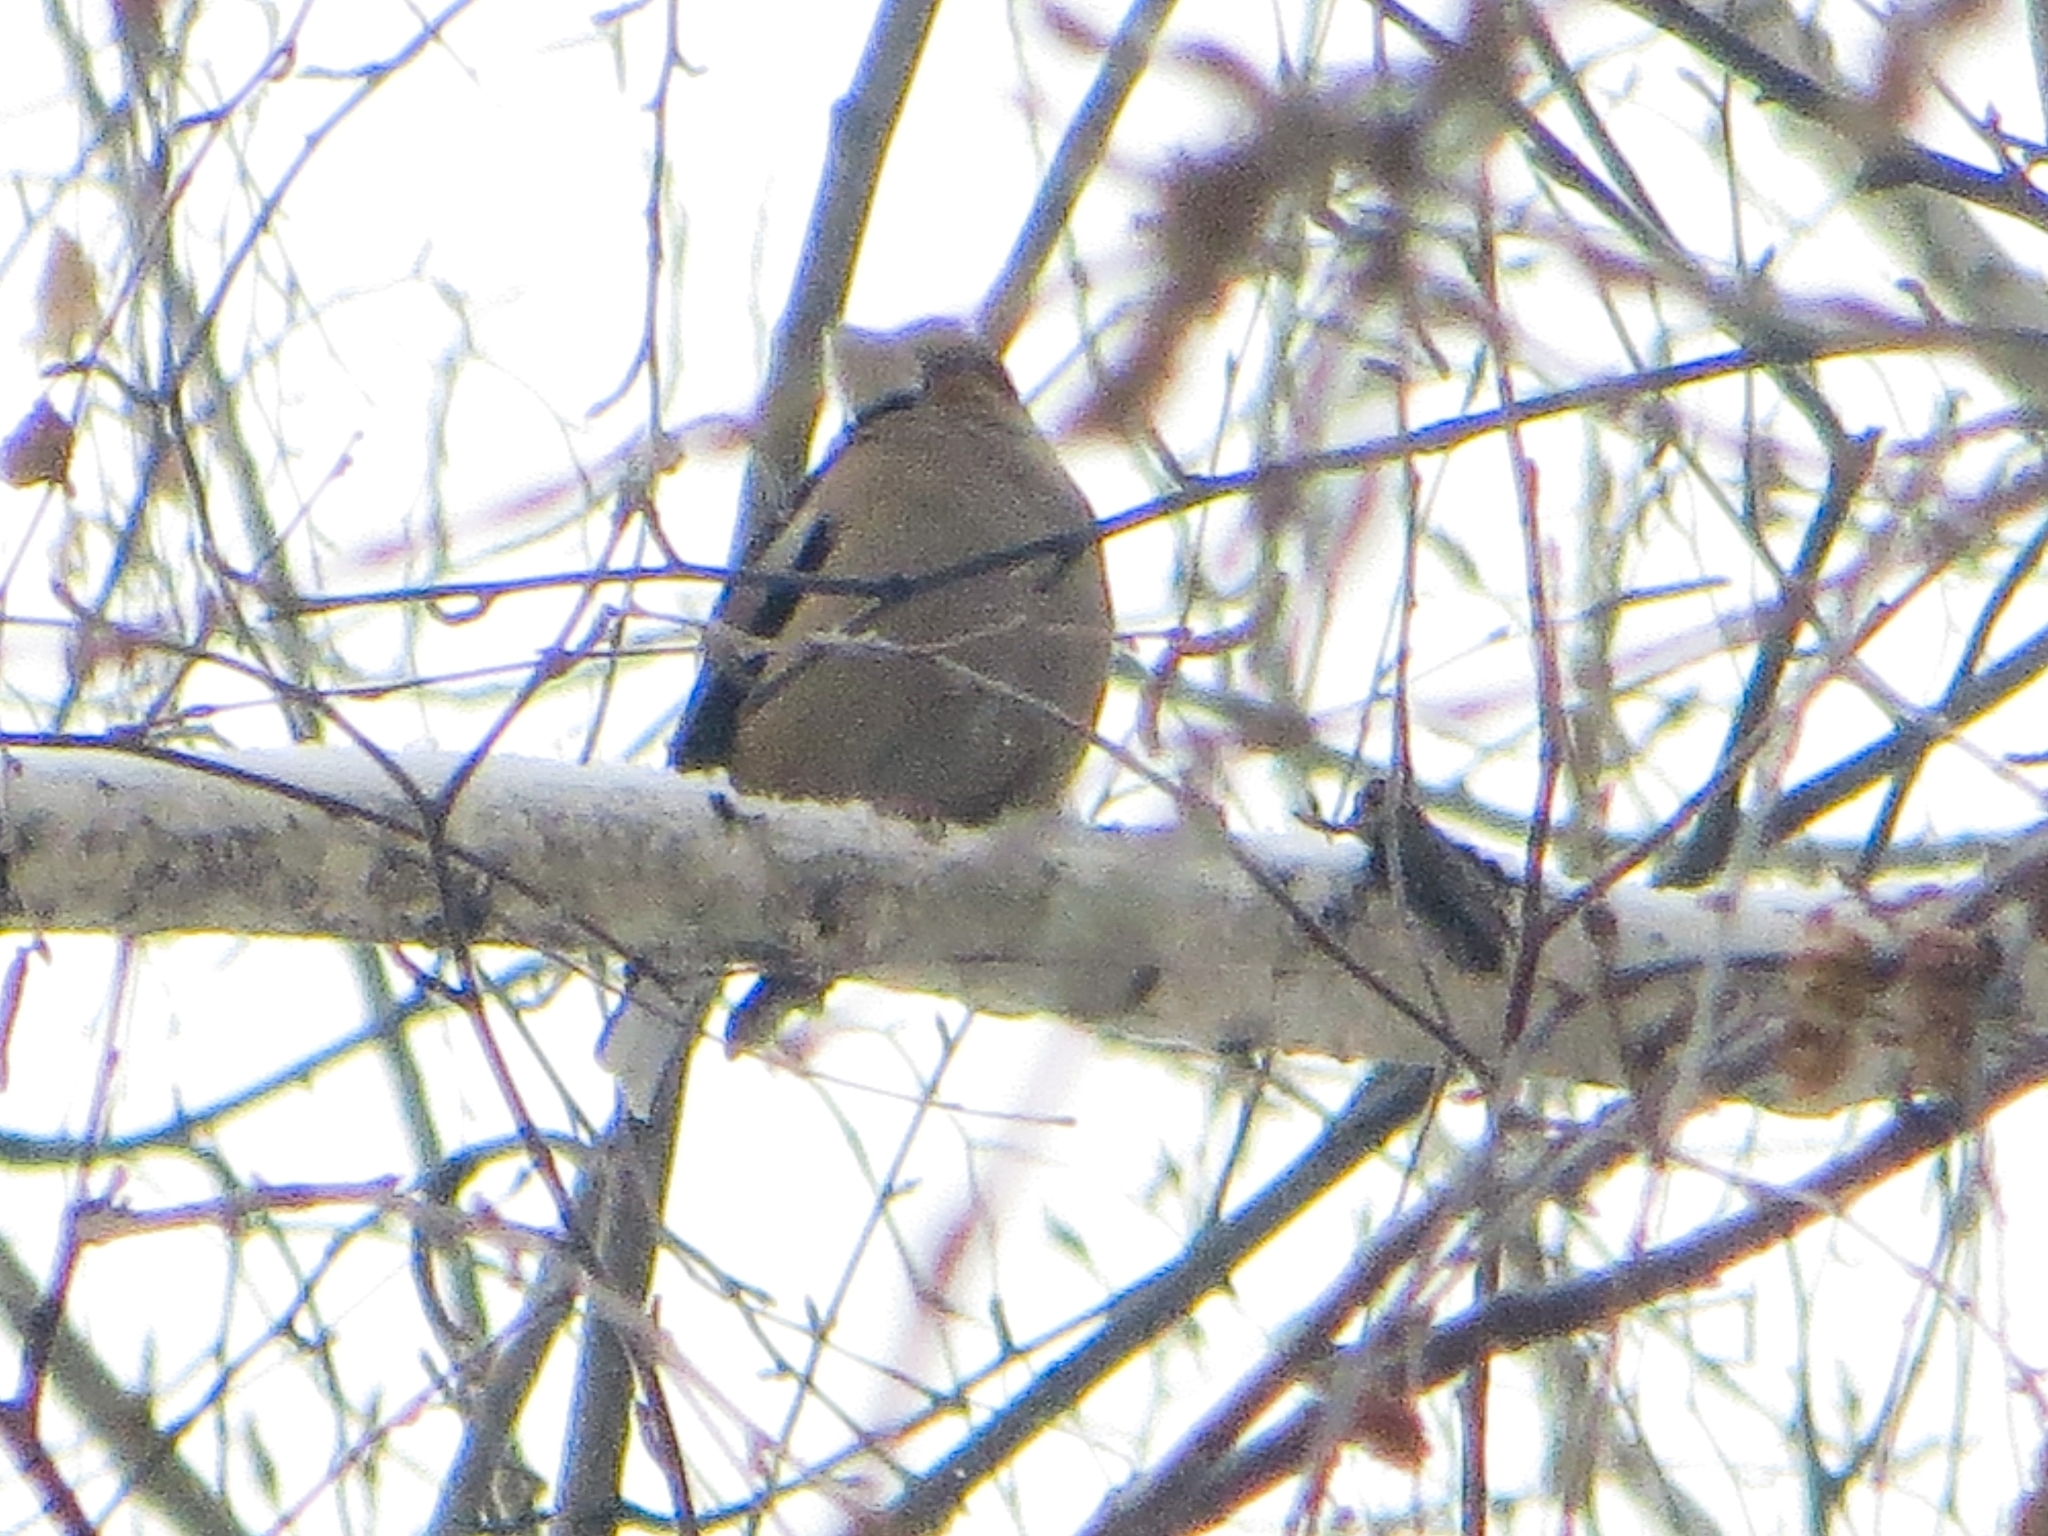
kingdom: Animalia
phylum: Chordata
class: Aves
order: Passeriformes
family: Fringillidae
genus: Coccothraustes
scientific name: Coccothraustes coccothraustes
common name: Hawfinch
